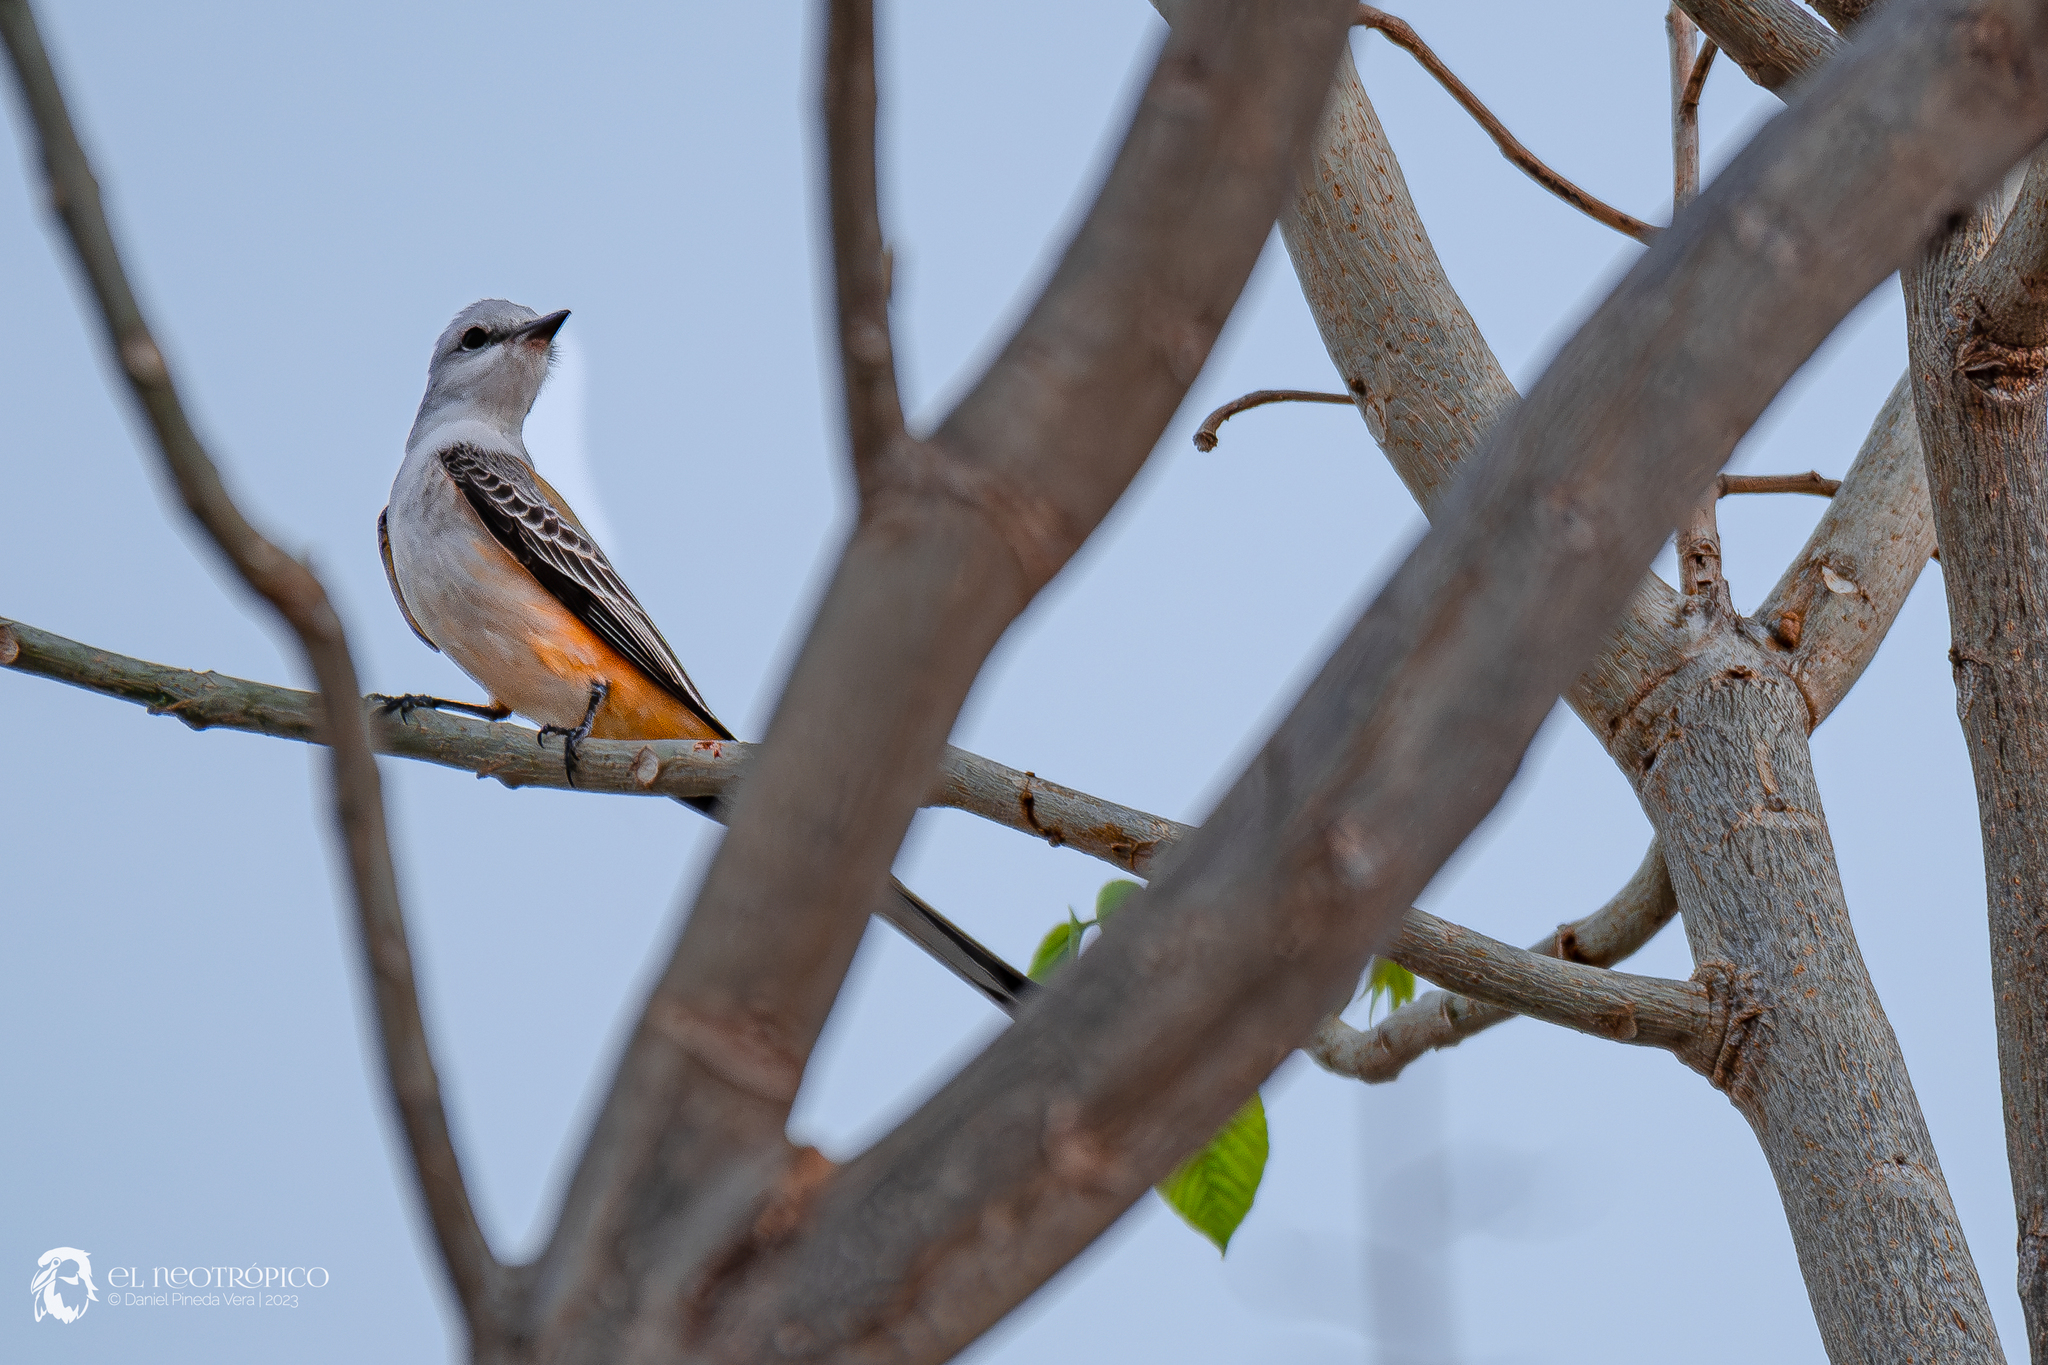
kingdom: Animalia
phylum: Chordata
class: Aves
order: Passeriformes
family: Tyrannidae
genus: Tyrannus
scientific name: Tyrannus forficatus
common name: Scissor-tailed flycatcher
